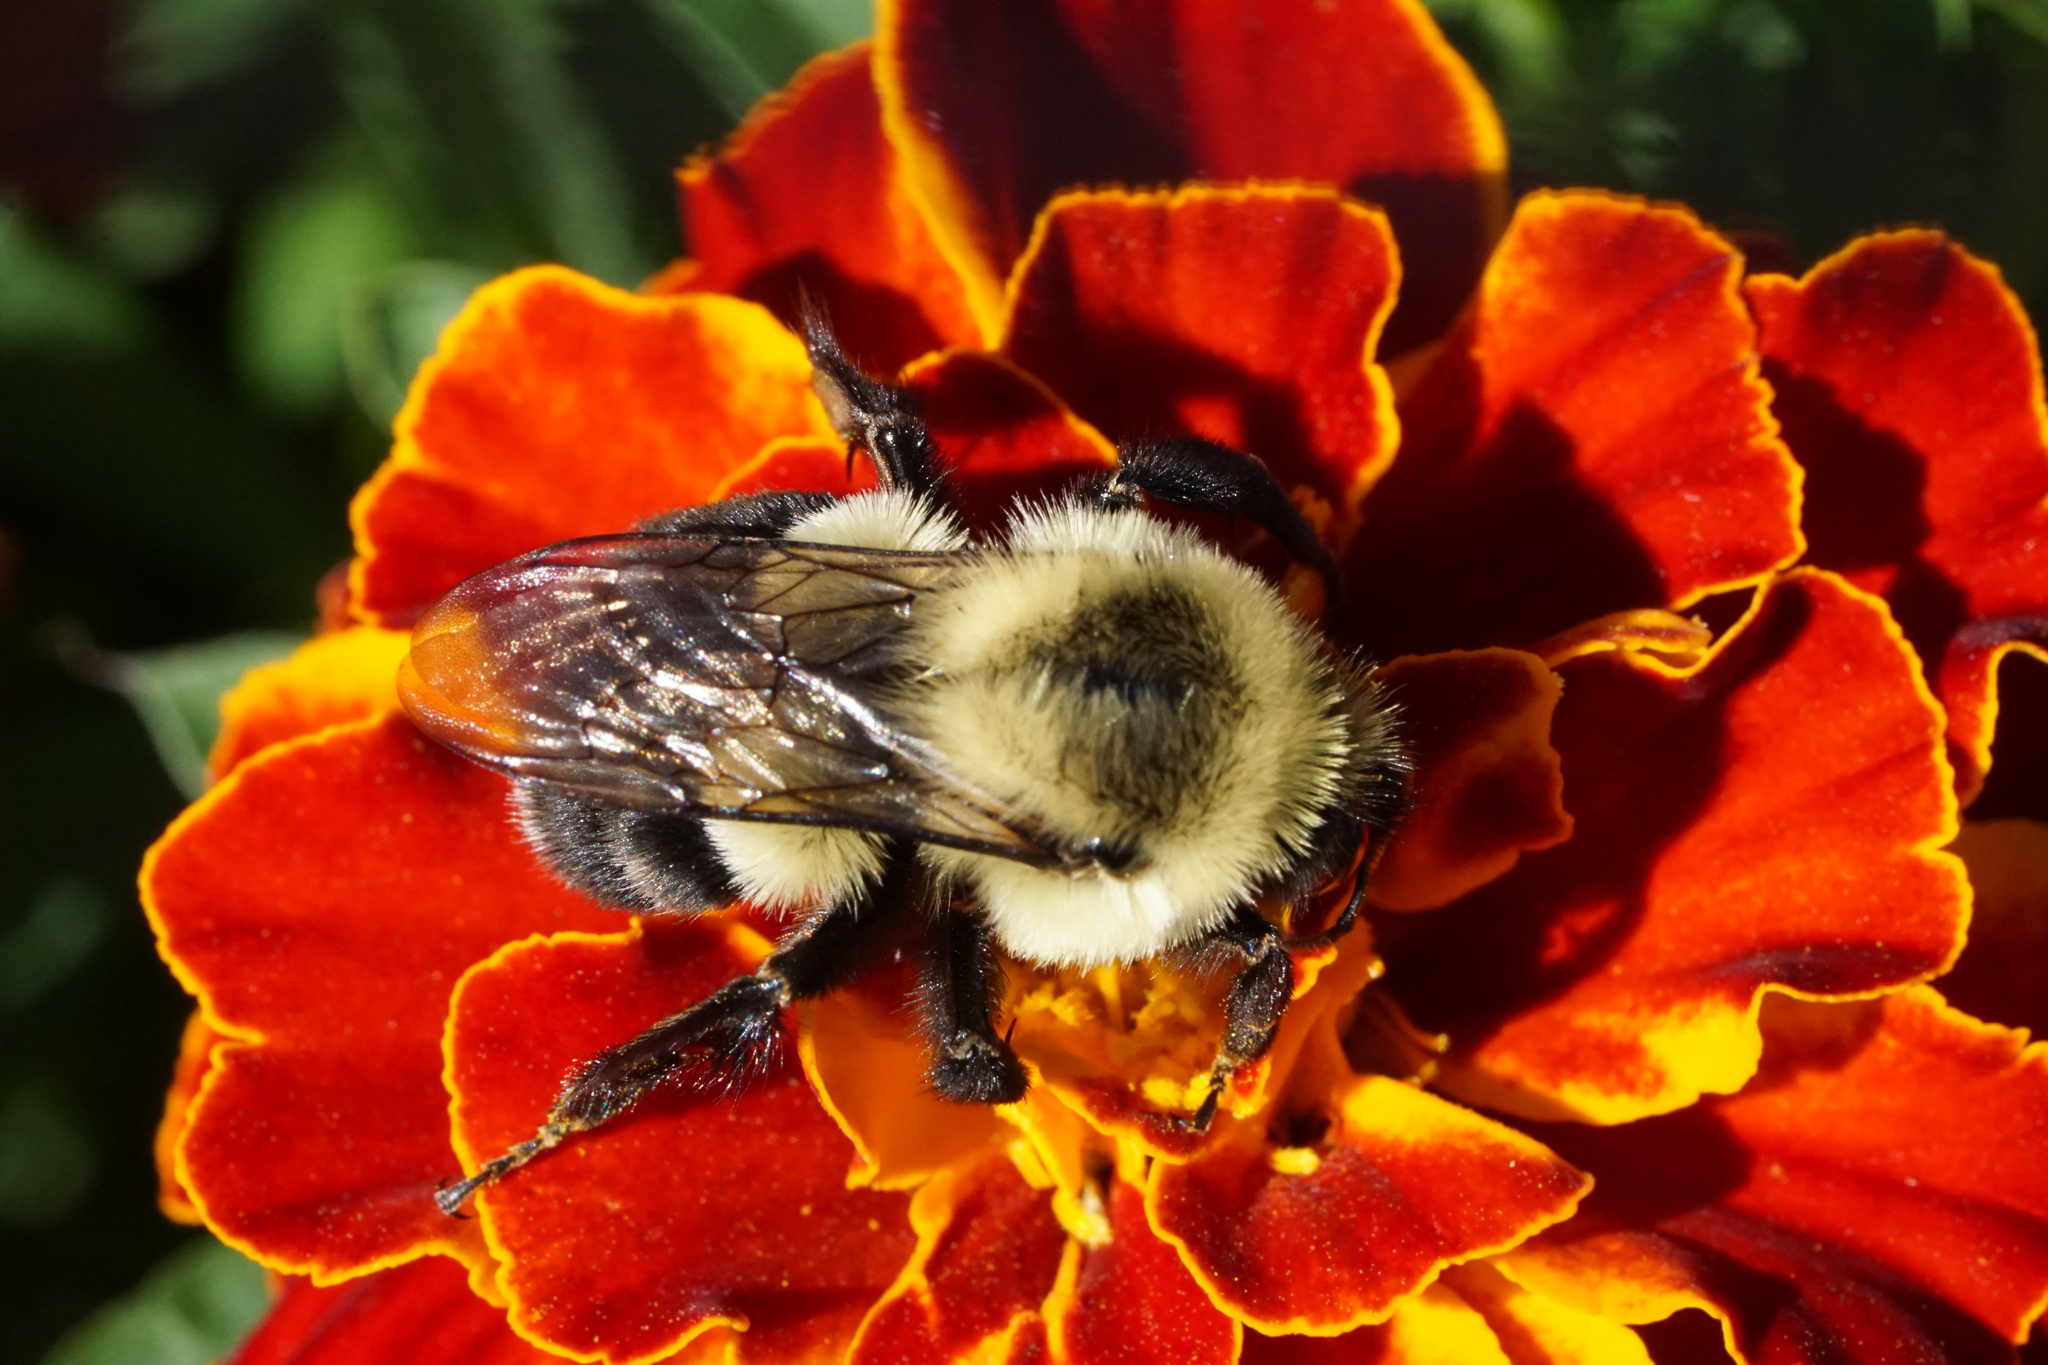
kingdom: Animalia
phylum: Arthropoda
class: Insecta
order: Hymenoptera
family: Apidae
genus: Bombus
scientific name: Bombus impatiens
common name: Common eastern bumble bee
